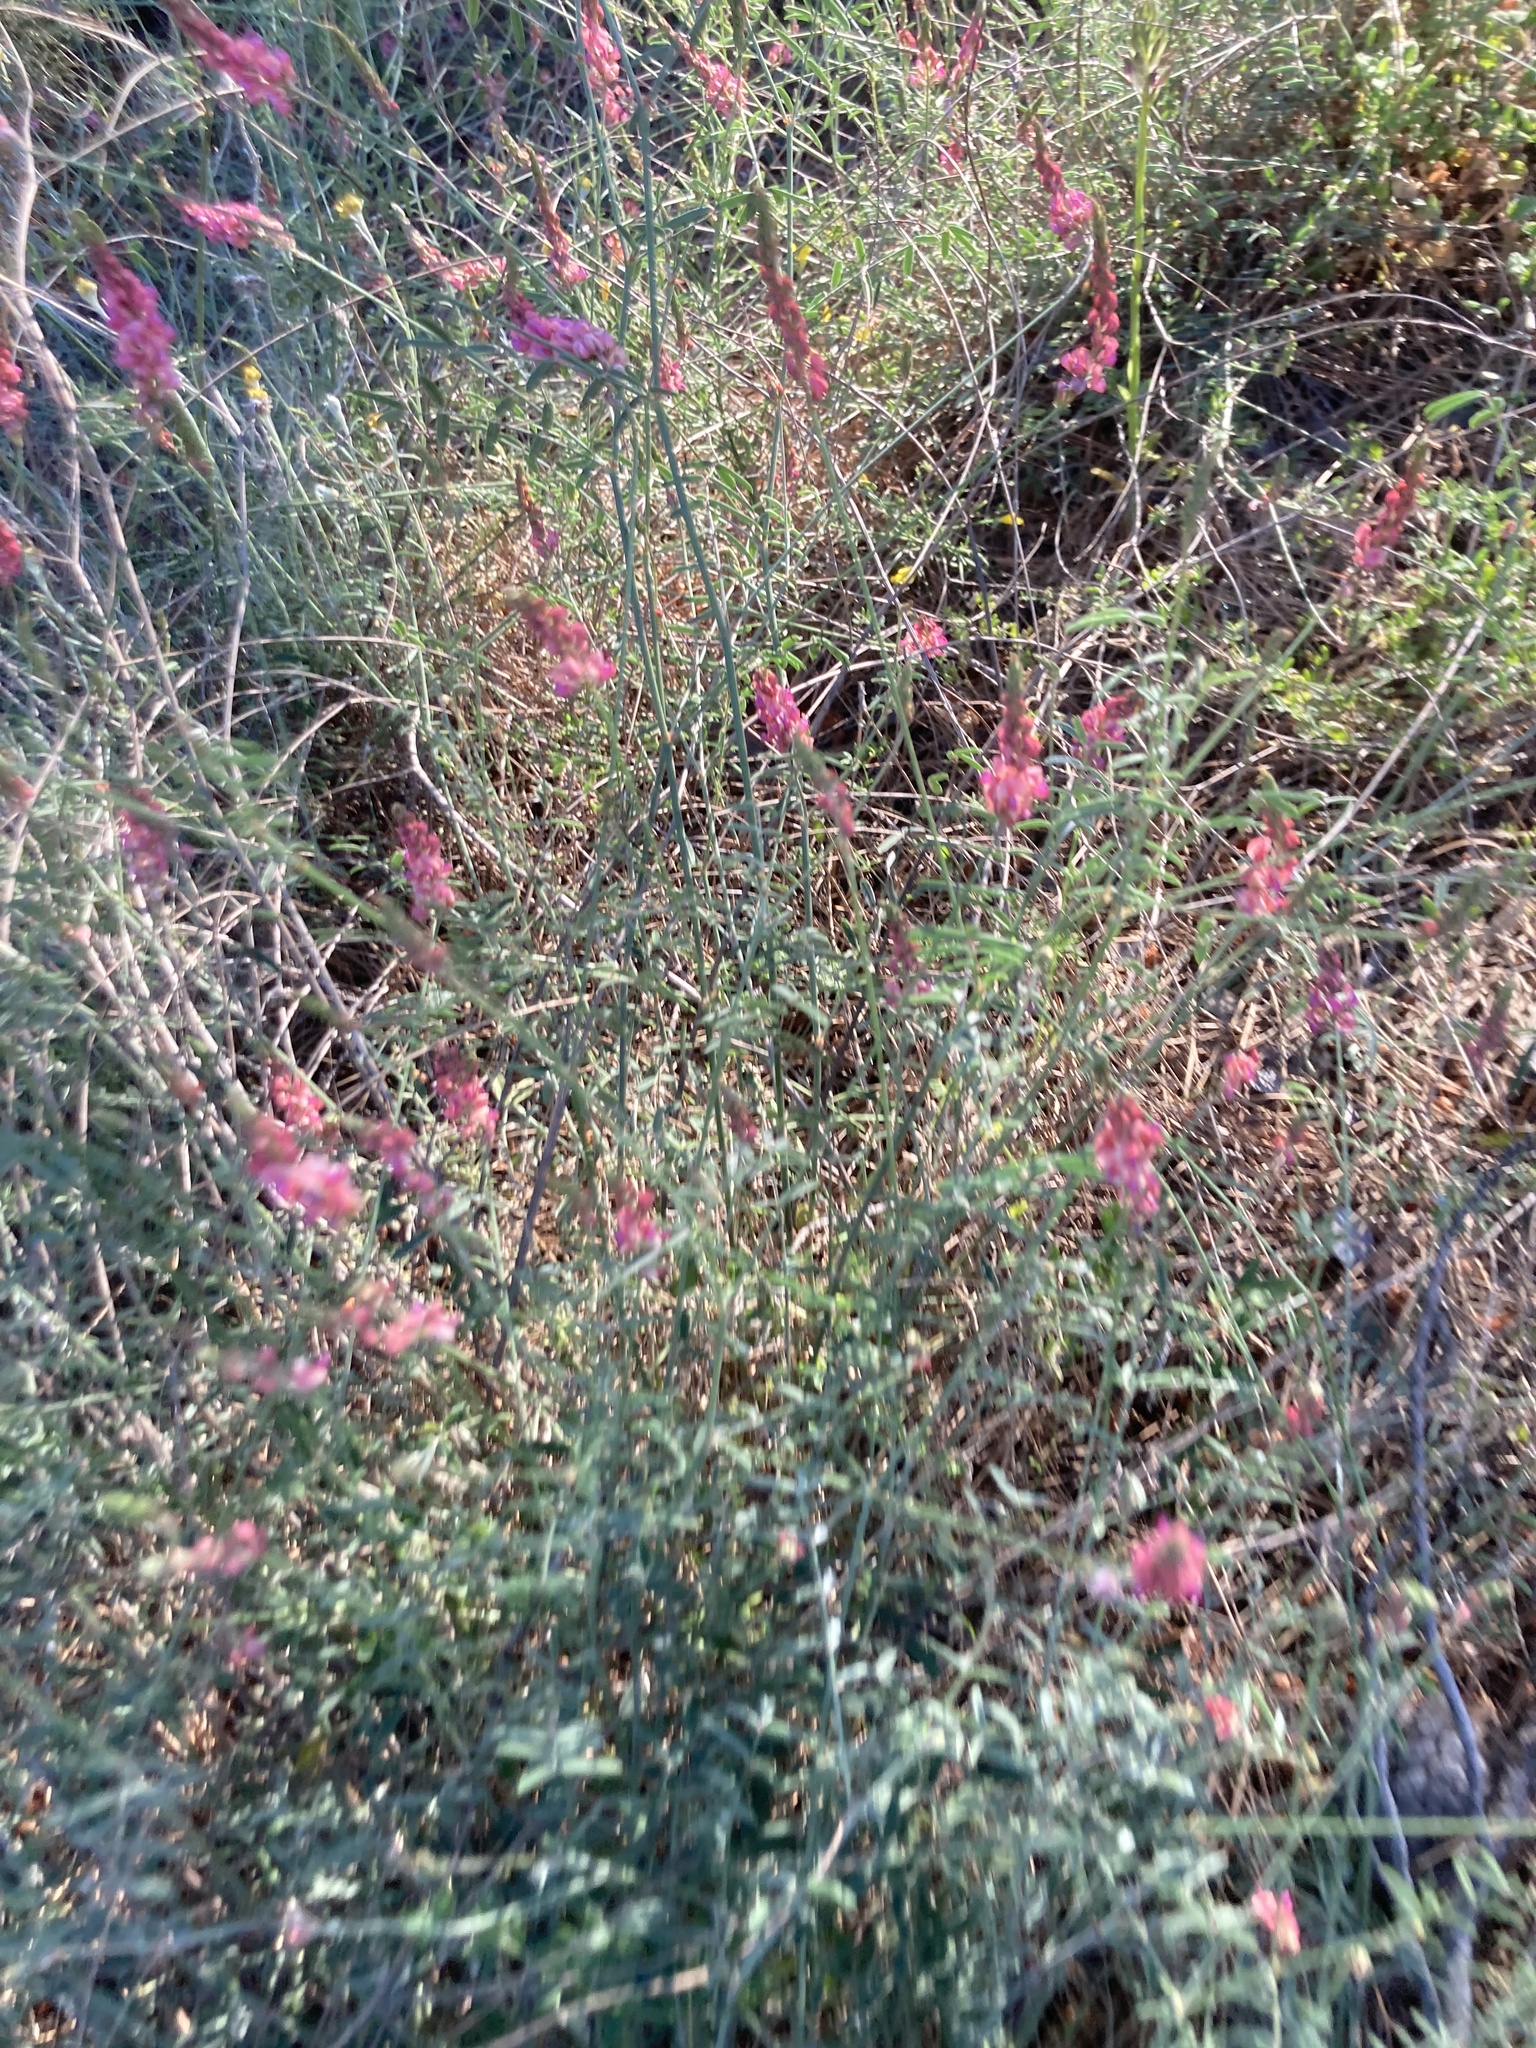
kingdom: Plantae
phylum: Tracheophyta
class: Magnoliopsida
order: Fabales
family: Fabaceae
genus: Onobrychis
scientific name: Onobrychis gracilis
